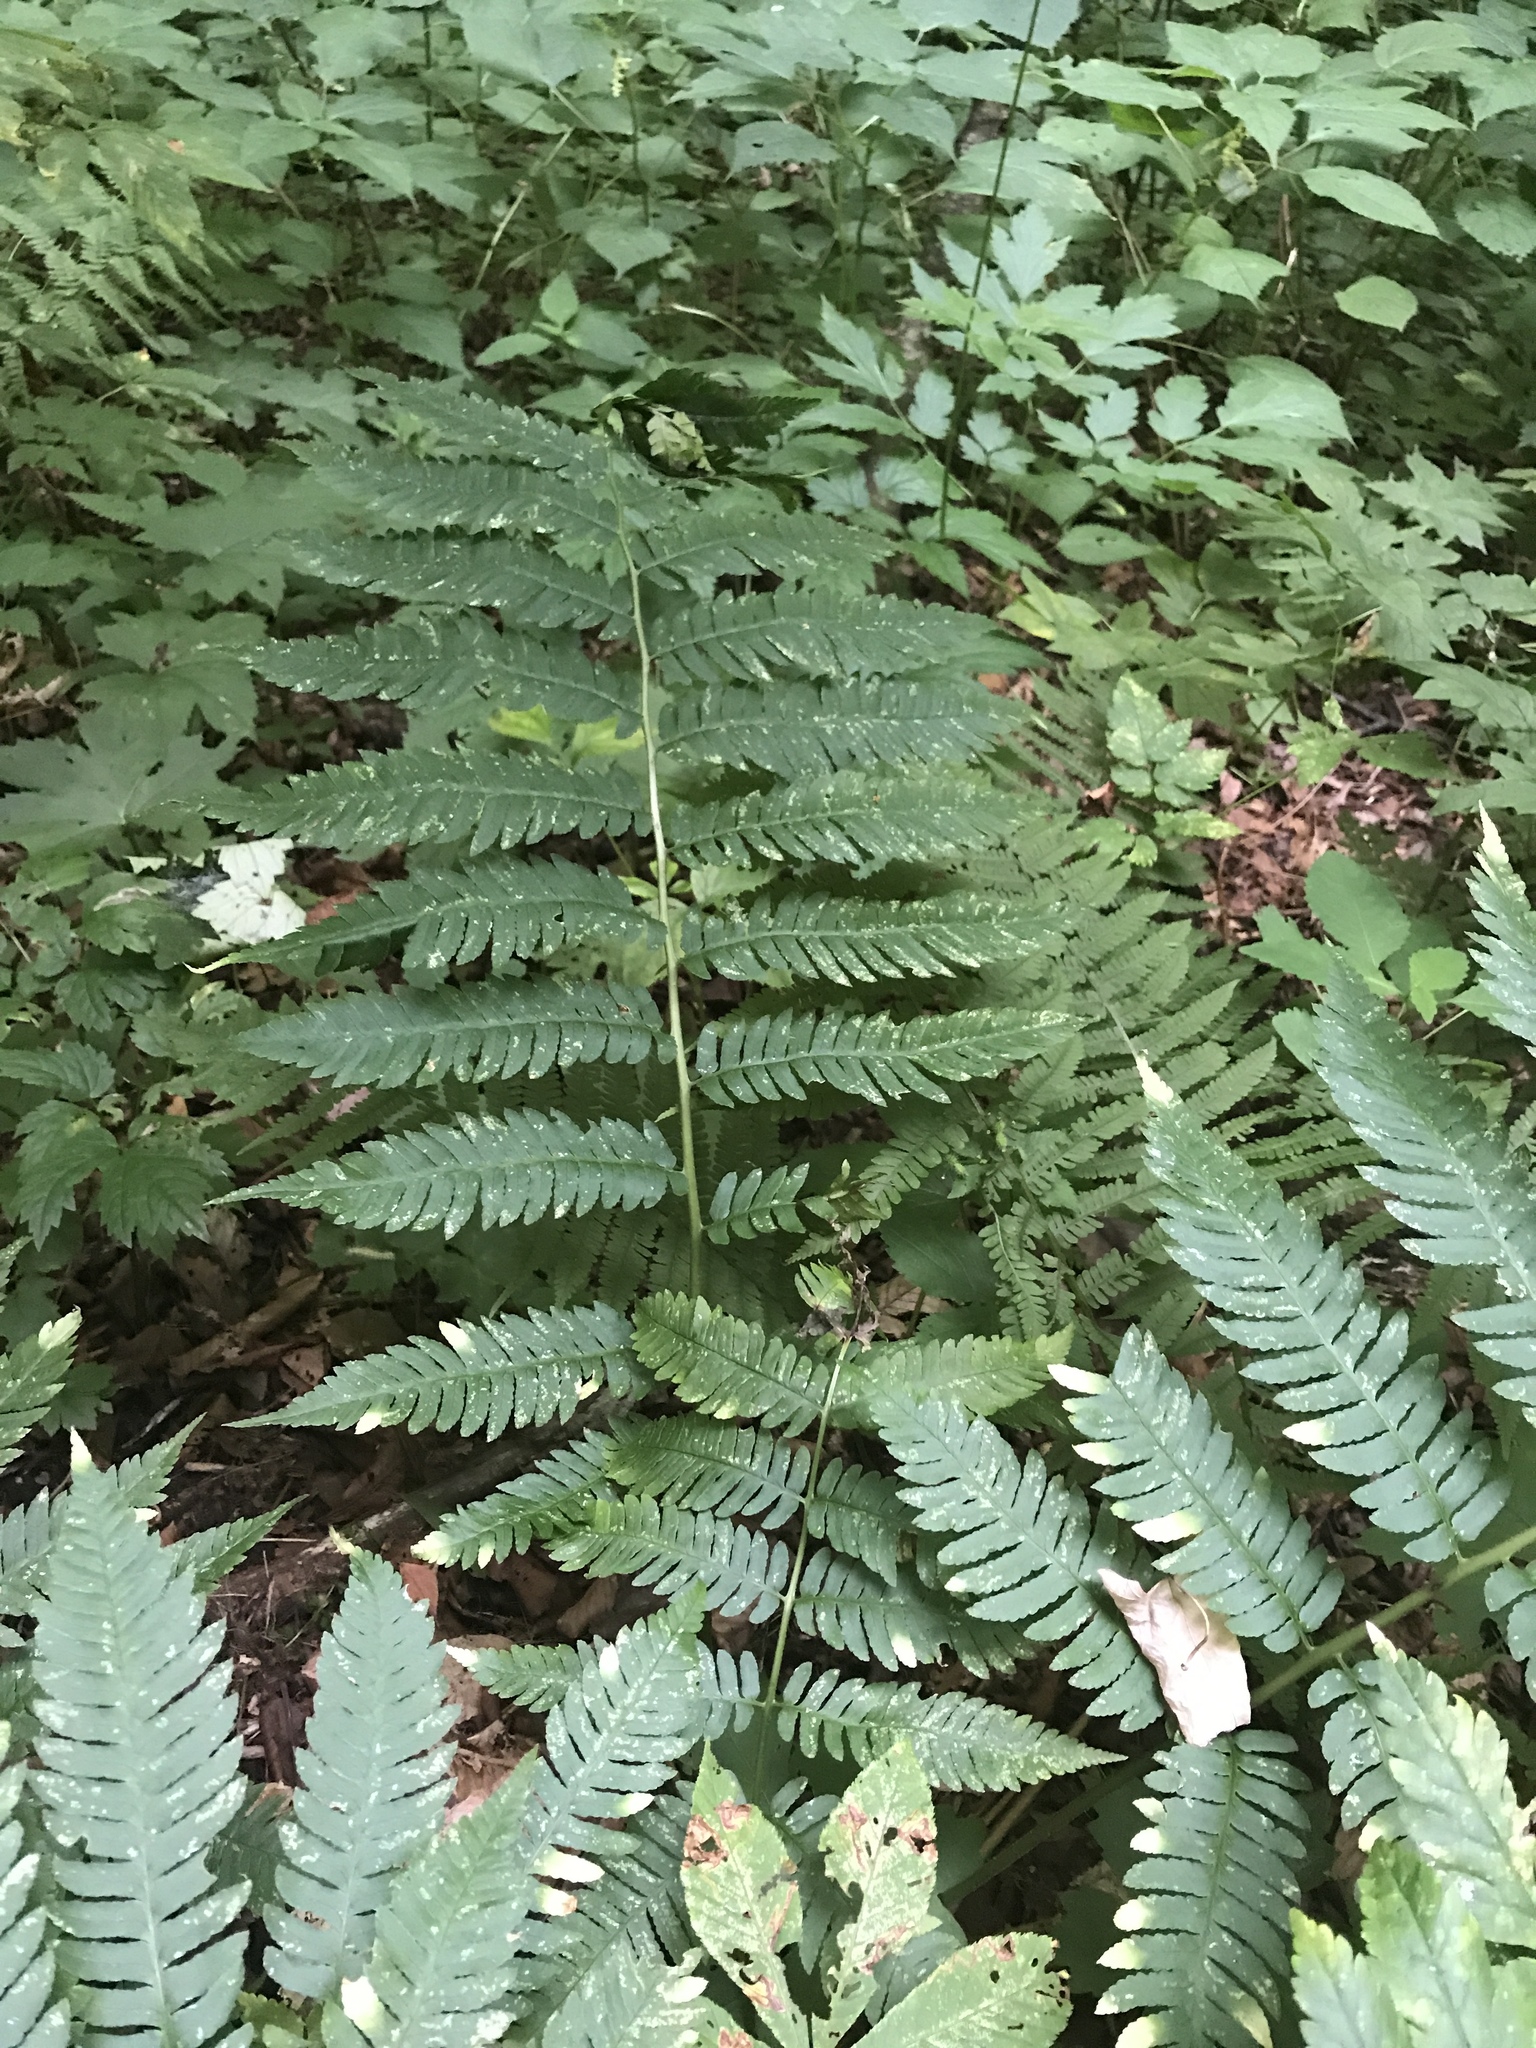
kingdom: Plantae
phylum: Tracheophyta
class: Polypodiopsida
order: Polypodiales
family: Dryopteridaceae
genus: Dryopteris
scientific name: Dryopteris goldieana
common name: Goldie's fern
